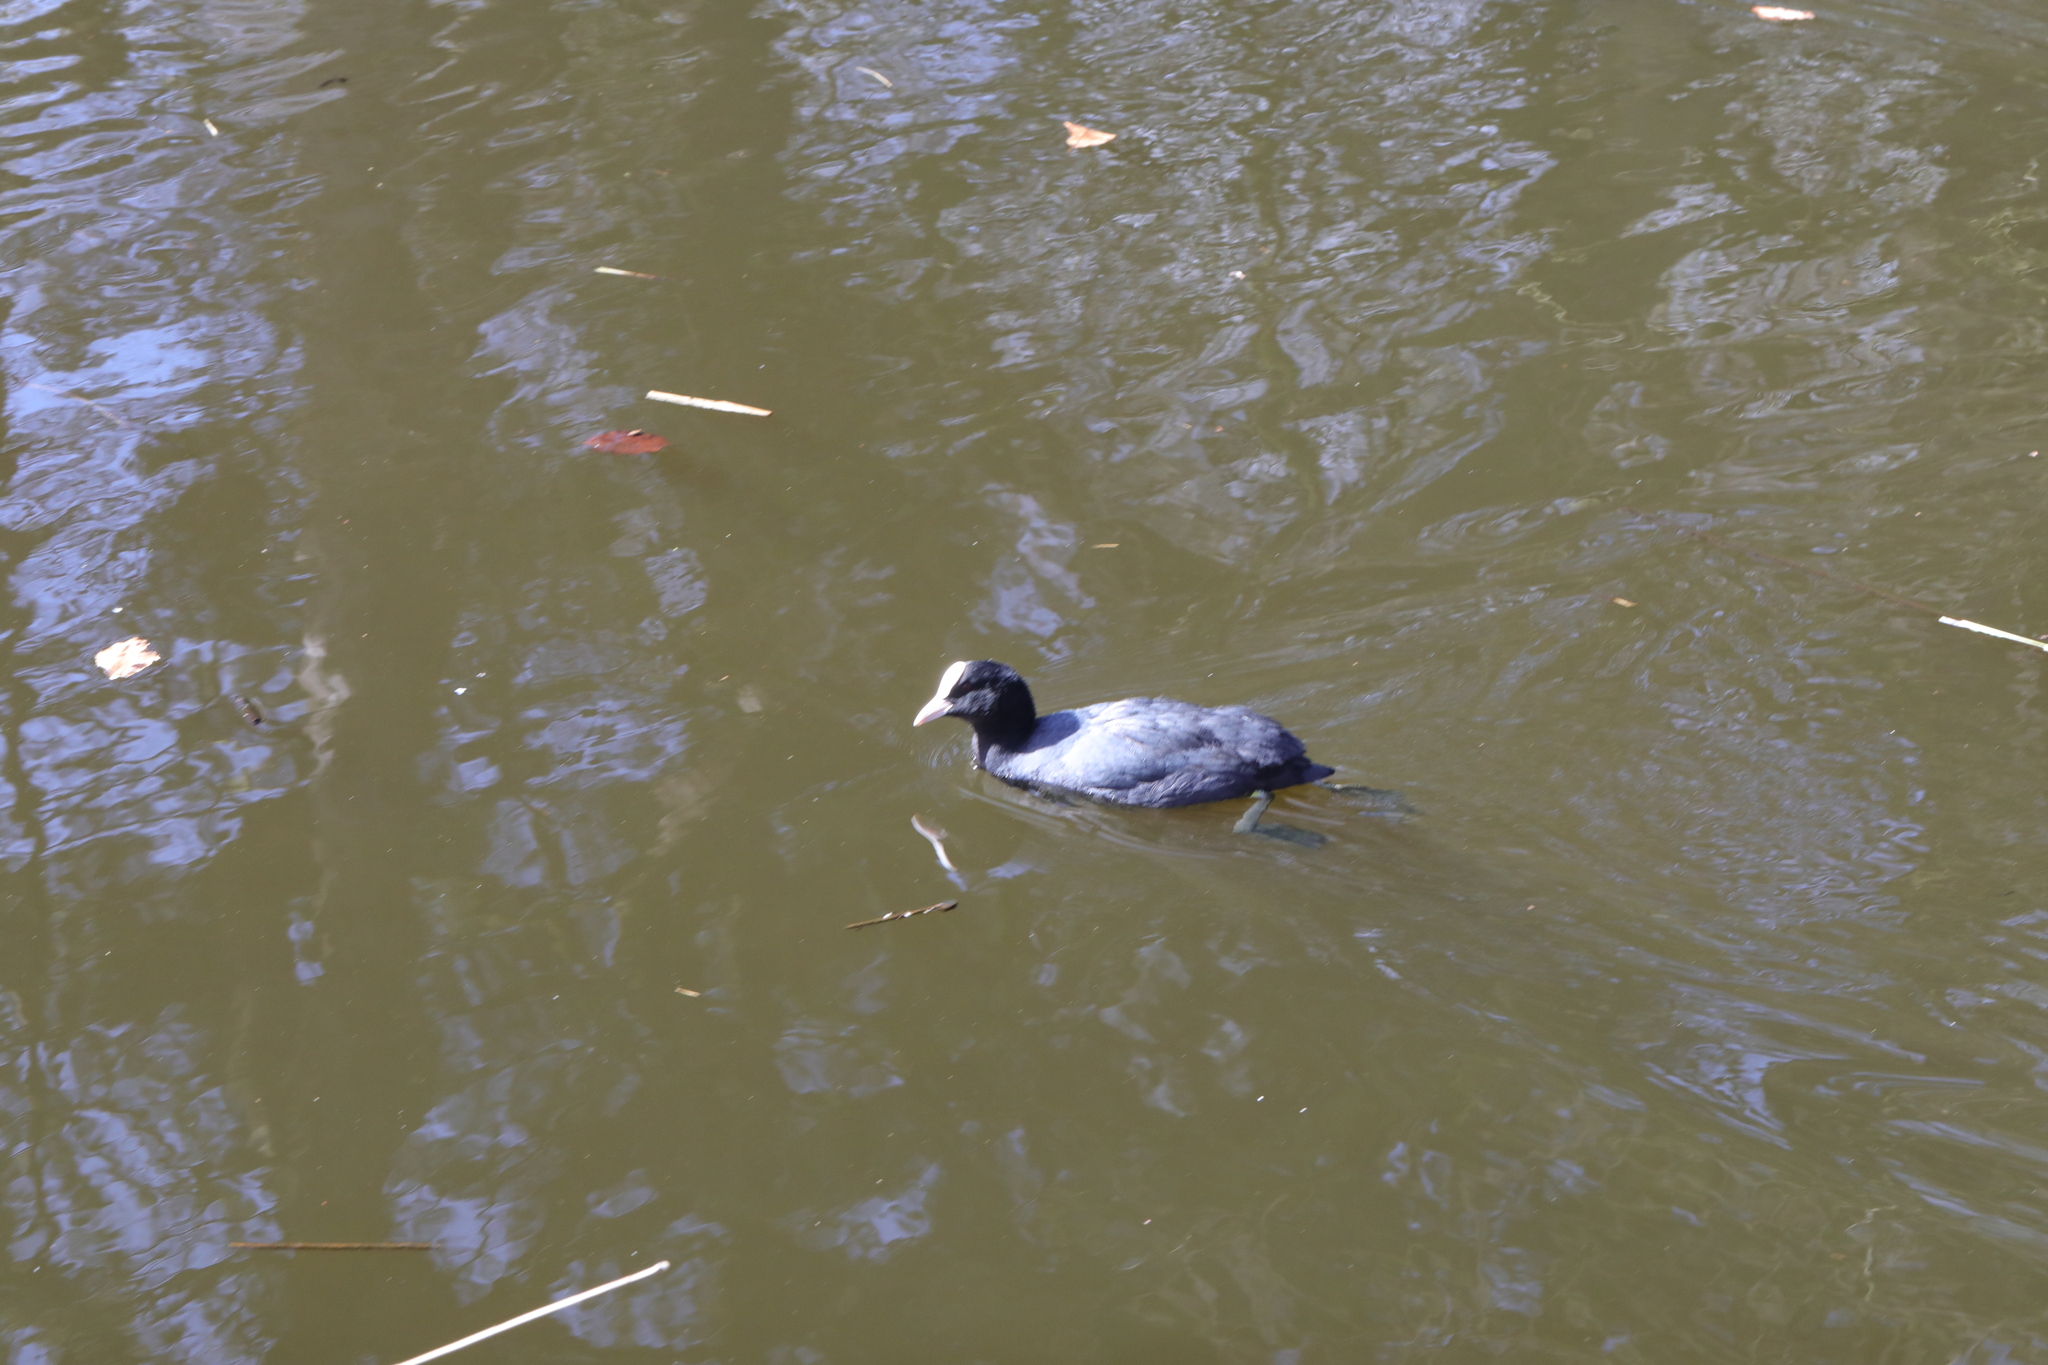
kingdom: Animalia
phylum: Chordata
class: Aves
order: Gruiformes
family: Rallidae
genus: Fulica
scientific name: Fulica atra
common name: Eurasian coot
